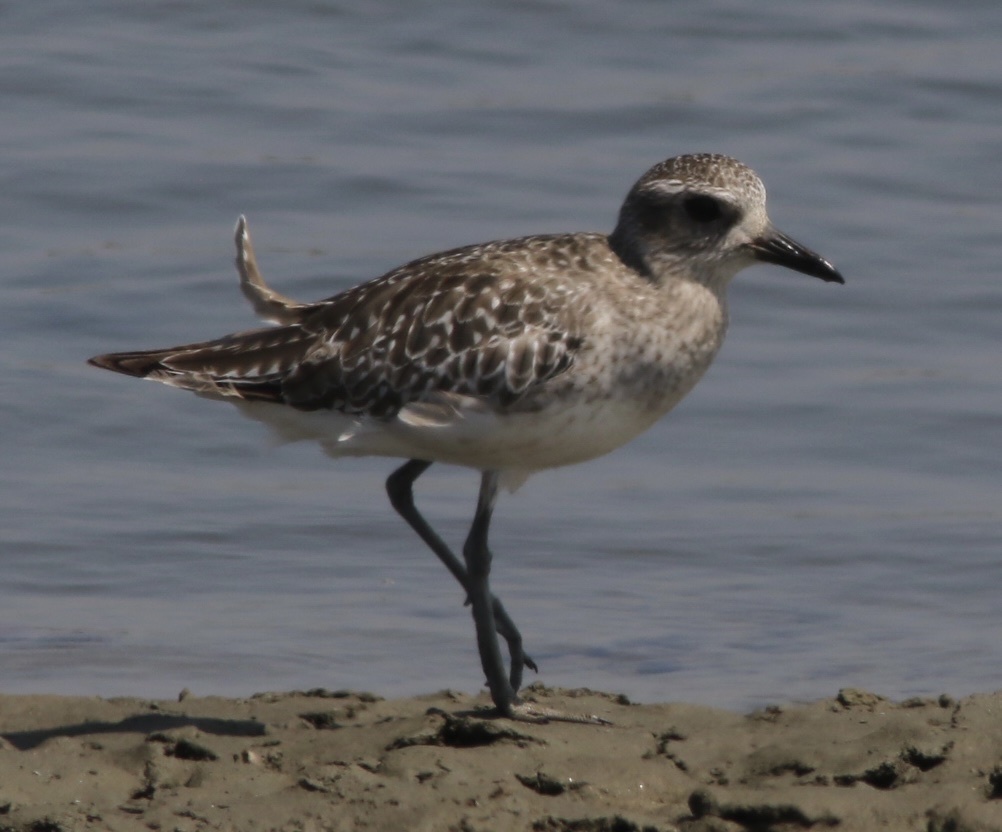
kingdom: Animalia
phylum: Chordata
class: Aves
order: Charadriiformes
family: Charadriidae
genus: Pluvialis
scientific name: Pluvialis squatarola
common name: Grey plover
